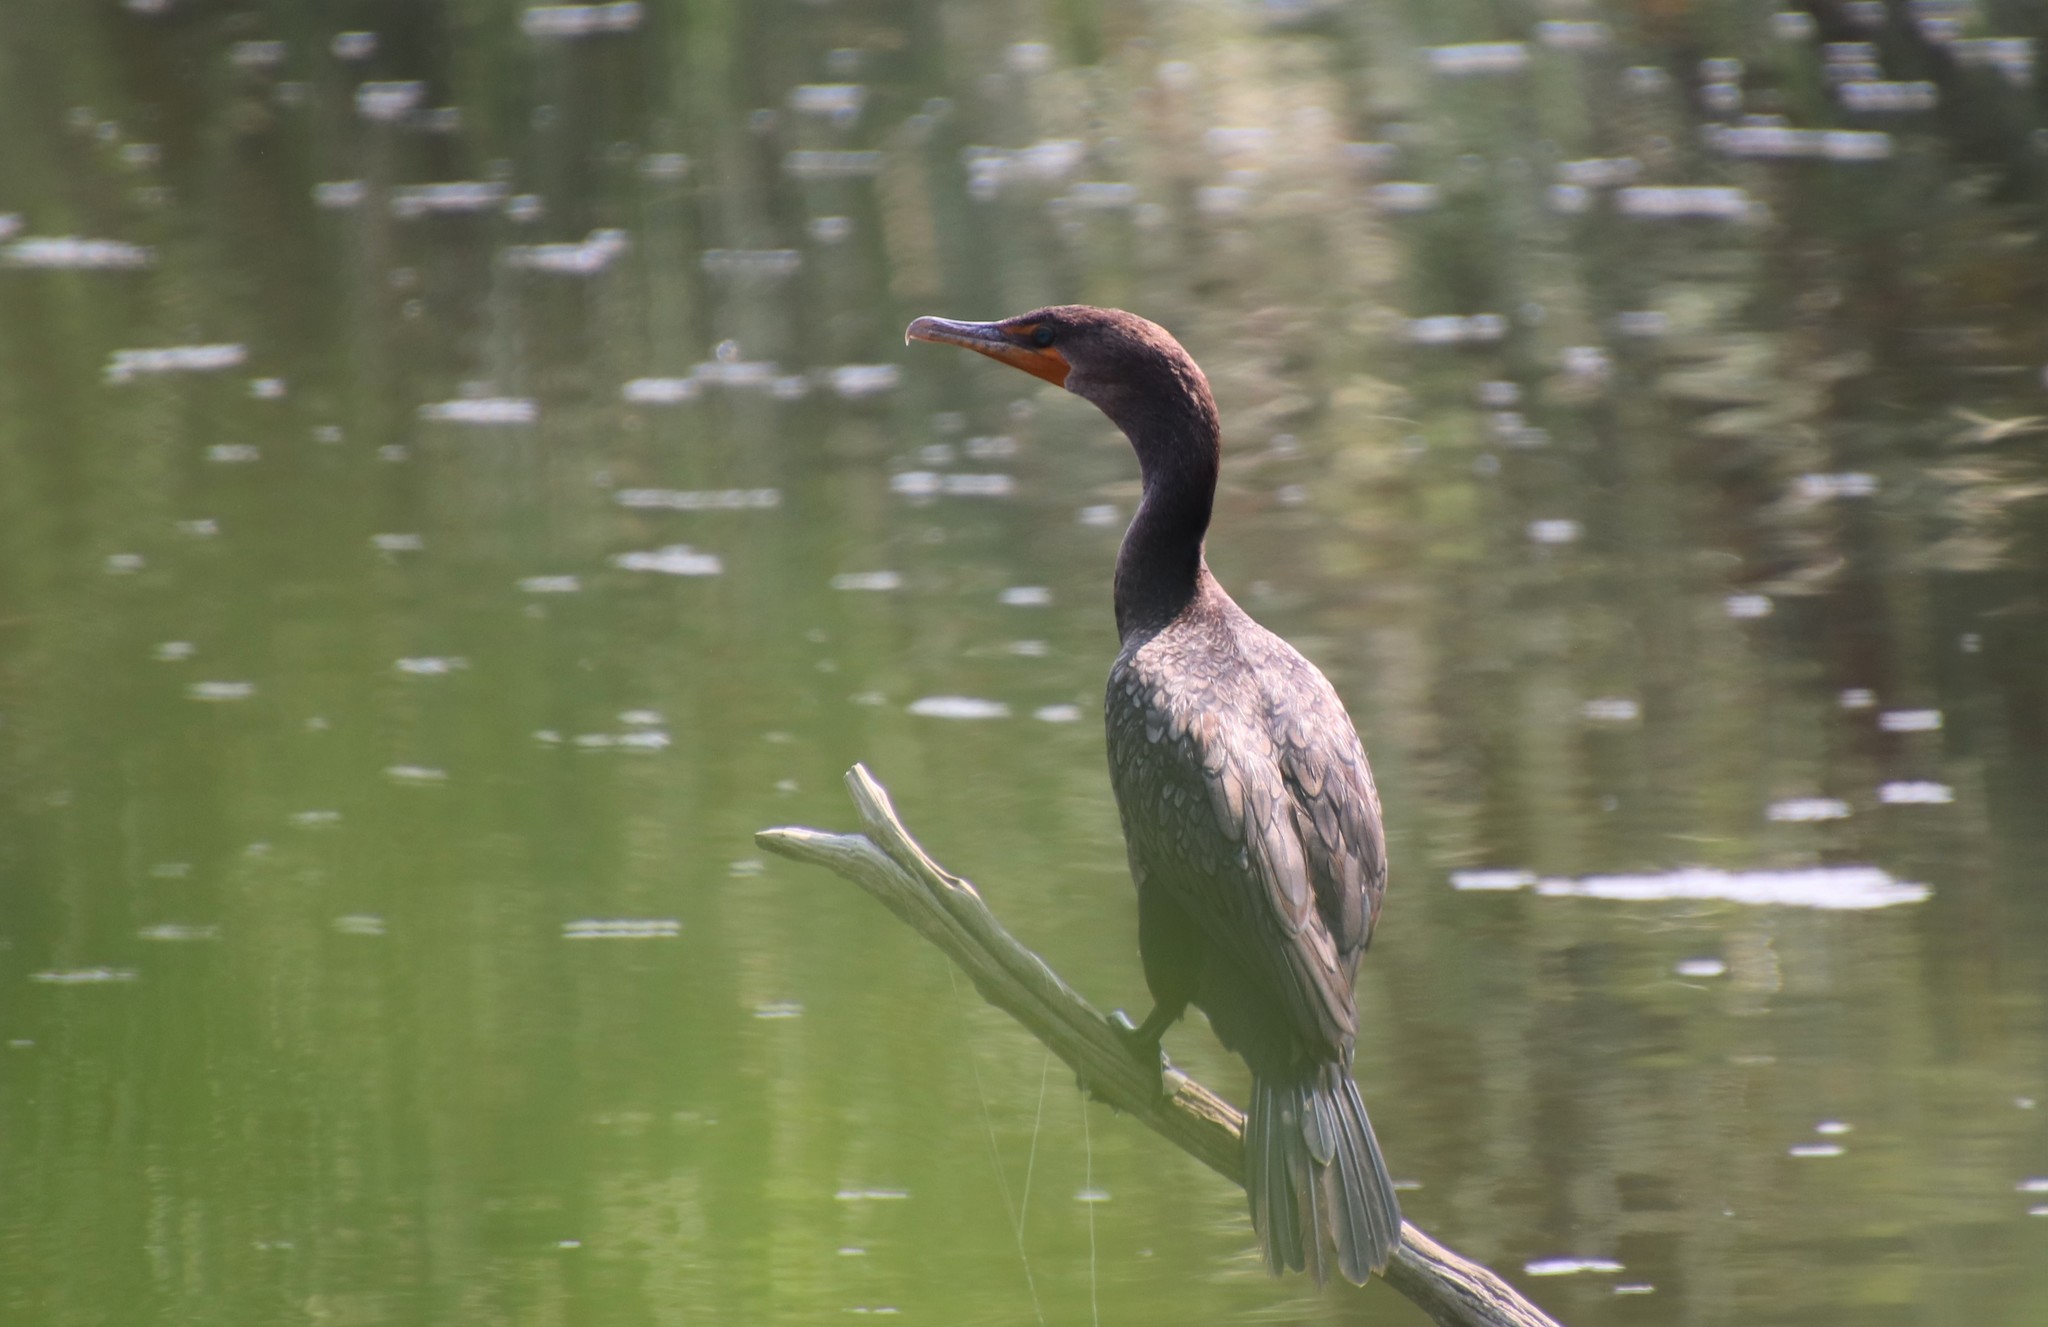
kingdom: Animalia
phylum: Chordata
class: Aves
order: Suliformes
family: Phalacrocoracidae
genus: Phalacrocorax
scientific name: Phalacrocorax auritus
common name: Double-crested cormorant
